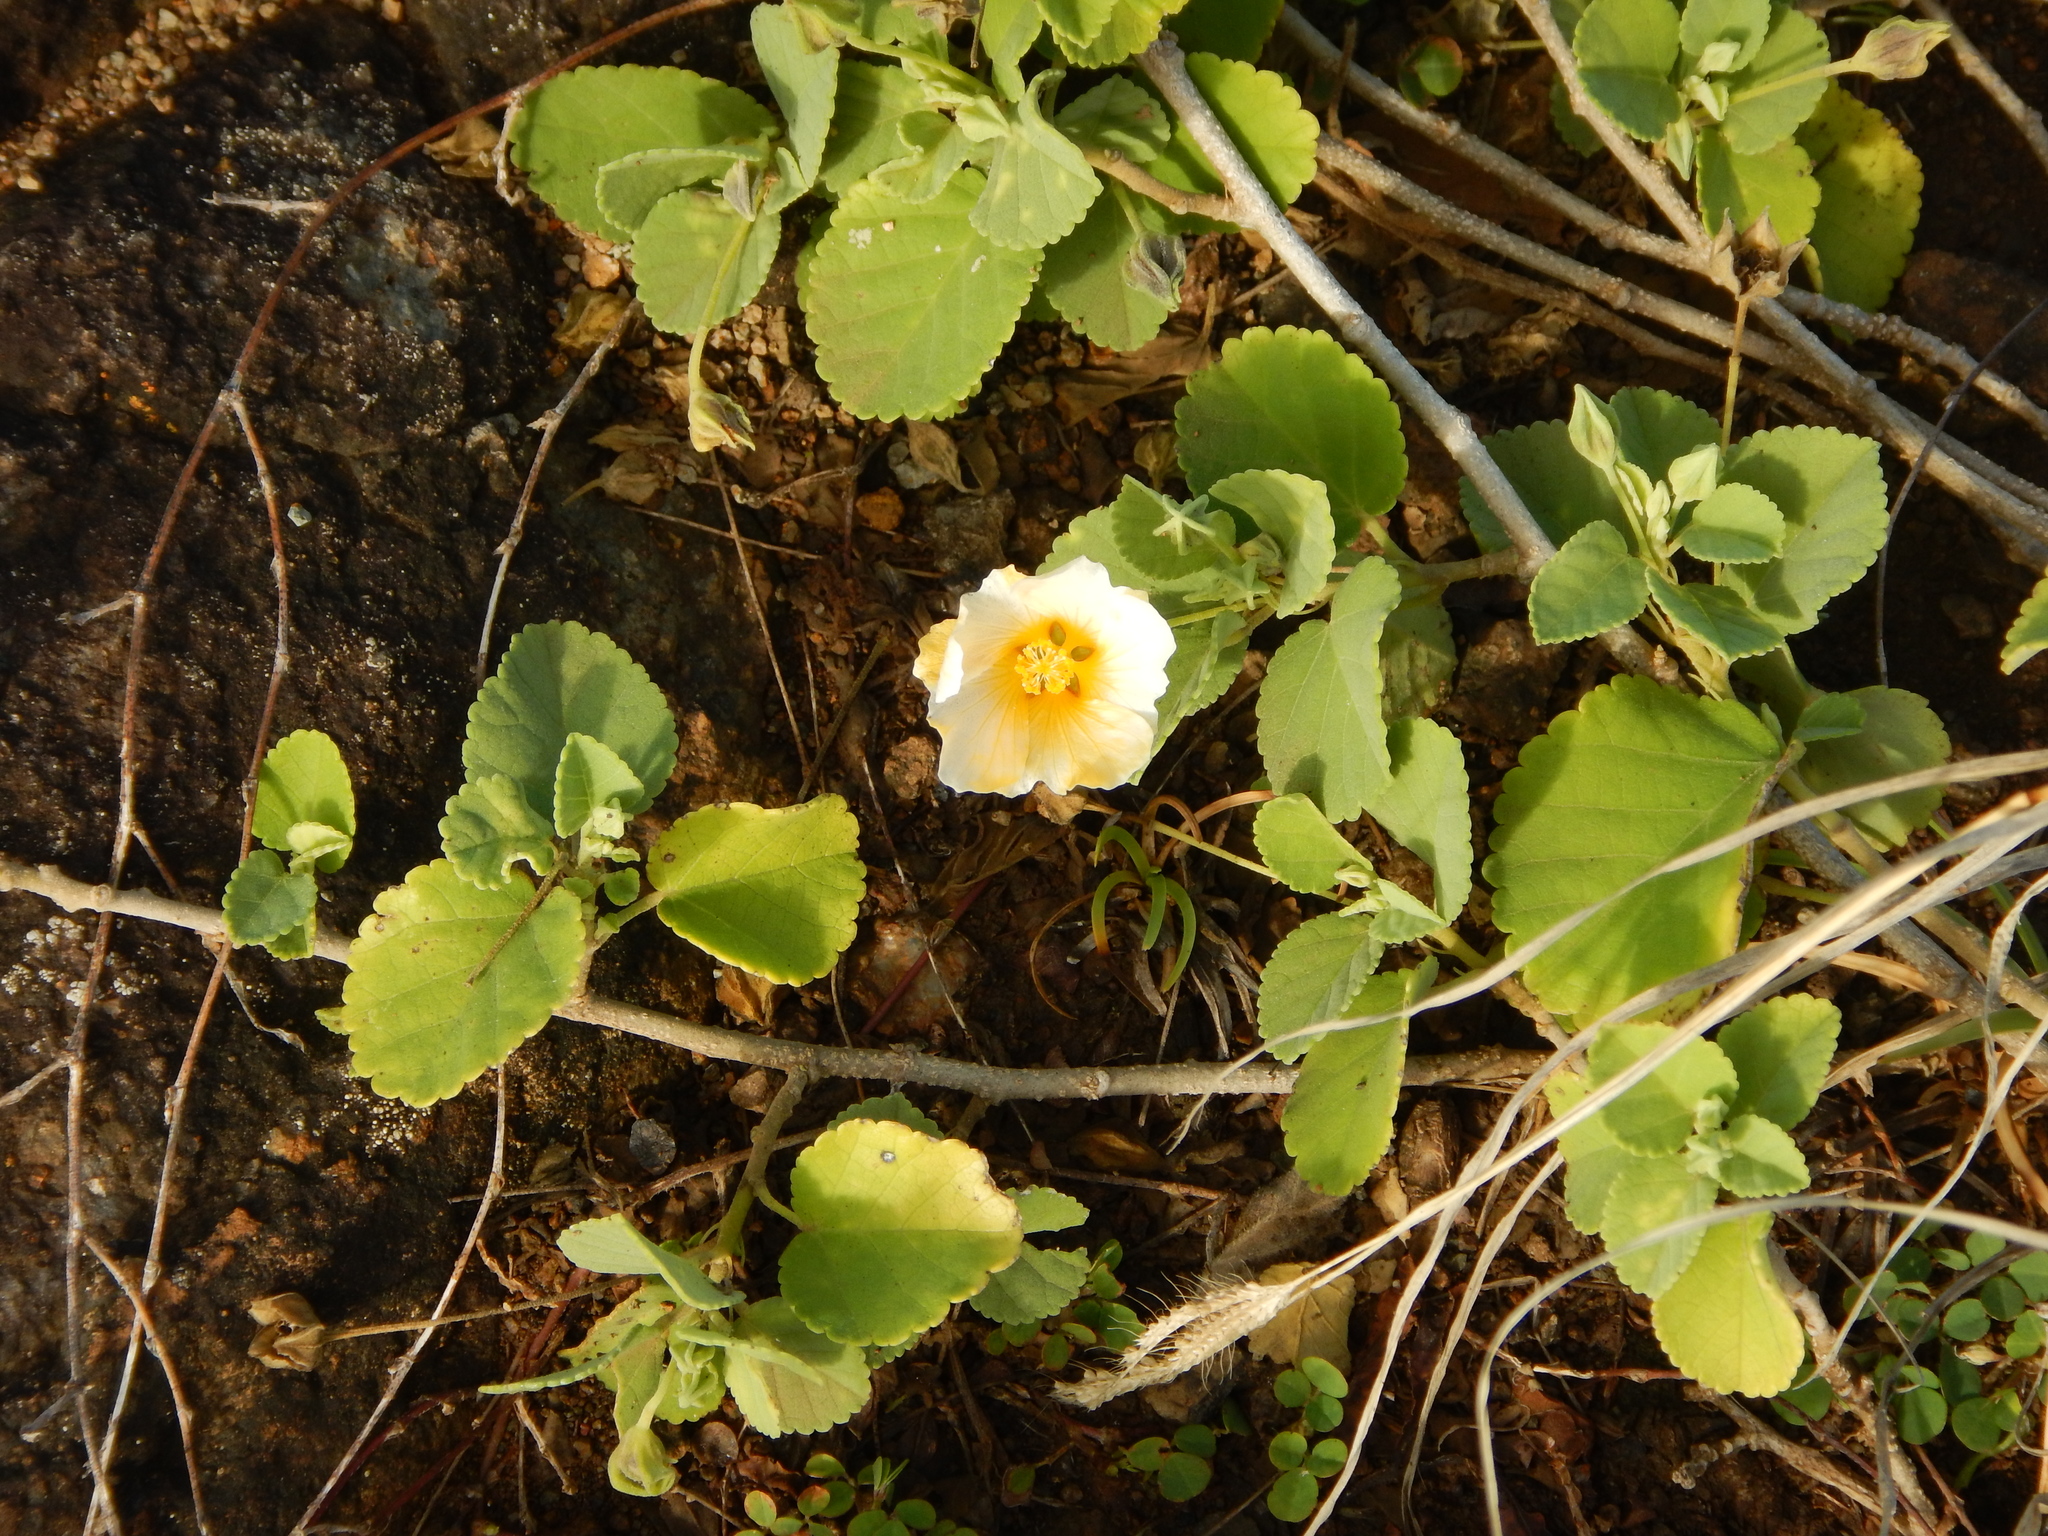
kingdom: Plantae
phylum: Tracheophyta
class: Magnoliopsida
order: Malvales
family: Malvaceae
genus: Sida
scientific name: Sida fallax
